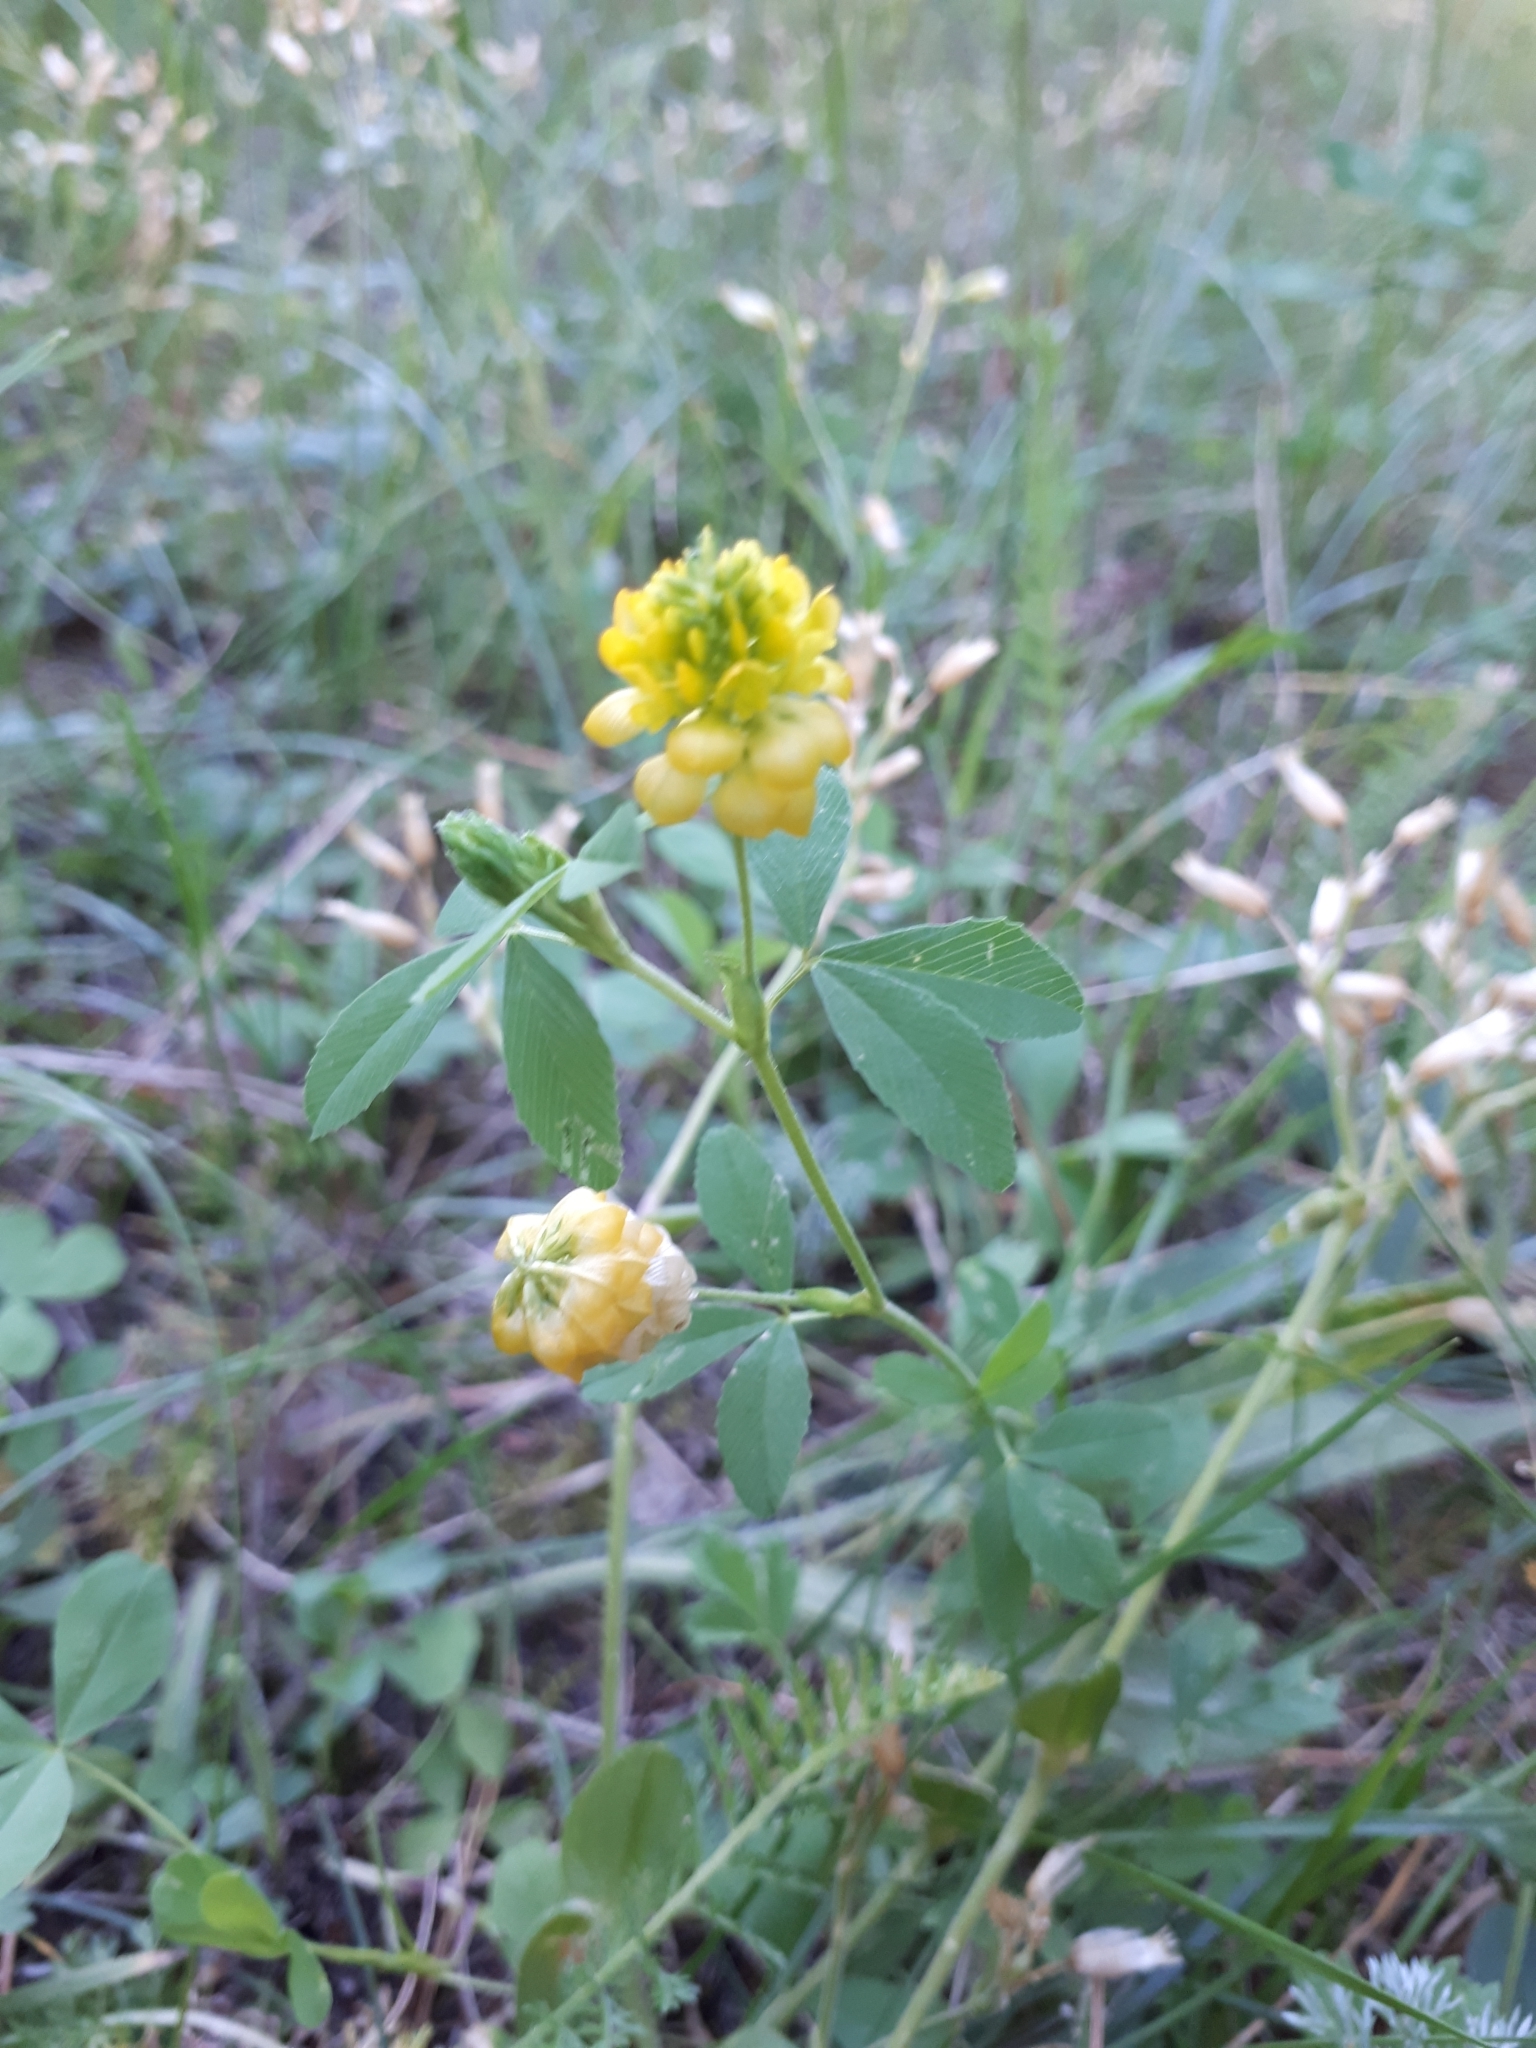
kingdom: Plantae
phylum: Tracheophyta
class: Magnoliopsida
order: Fabales
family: Fabaceae
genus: Trifolium
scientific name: Trifolium aureum
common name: Golden clover
